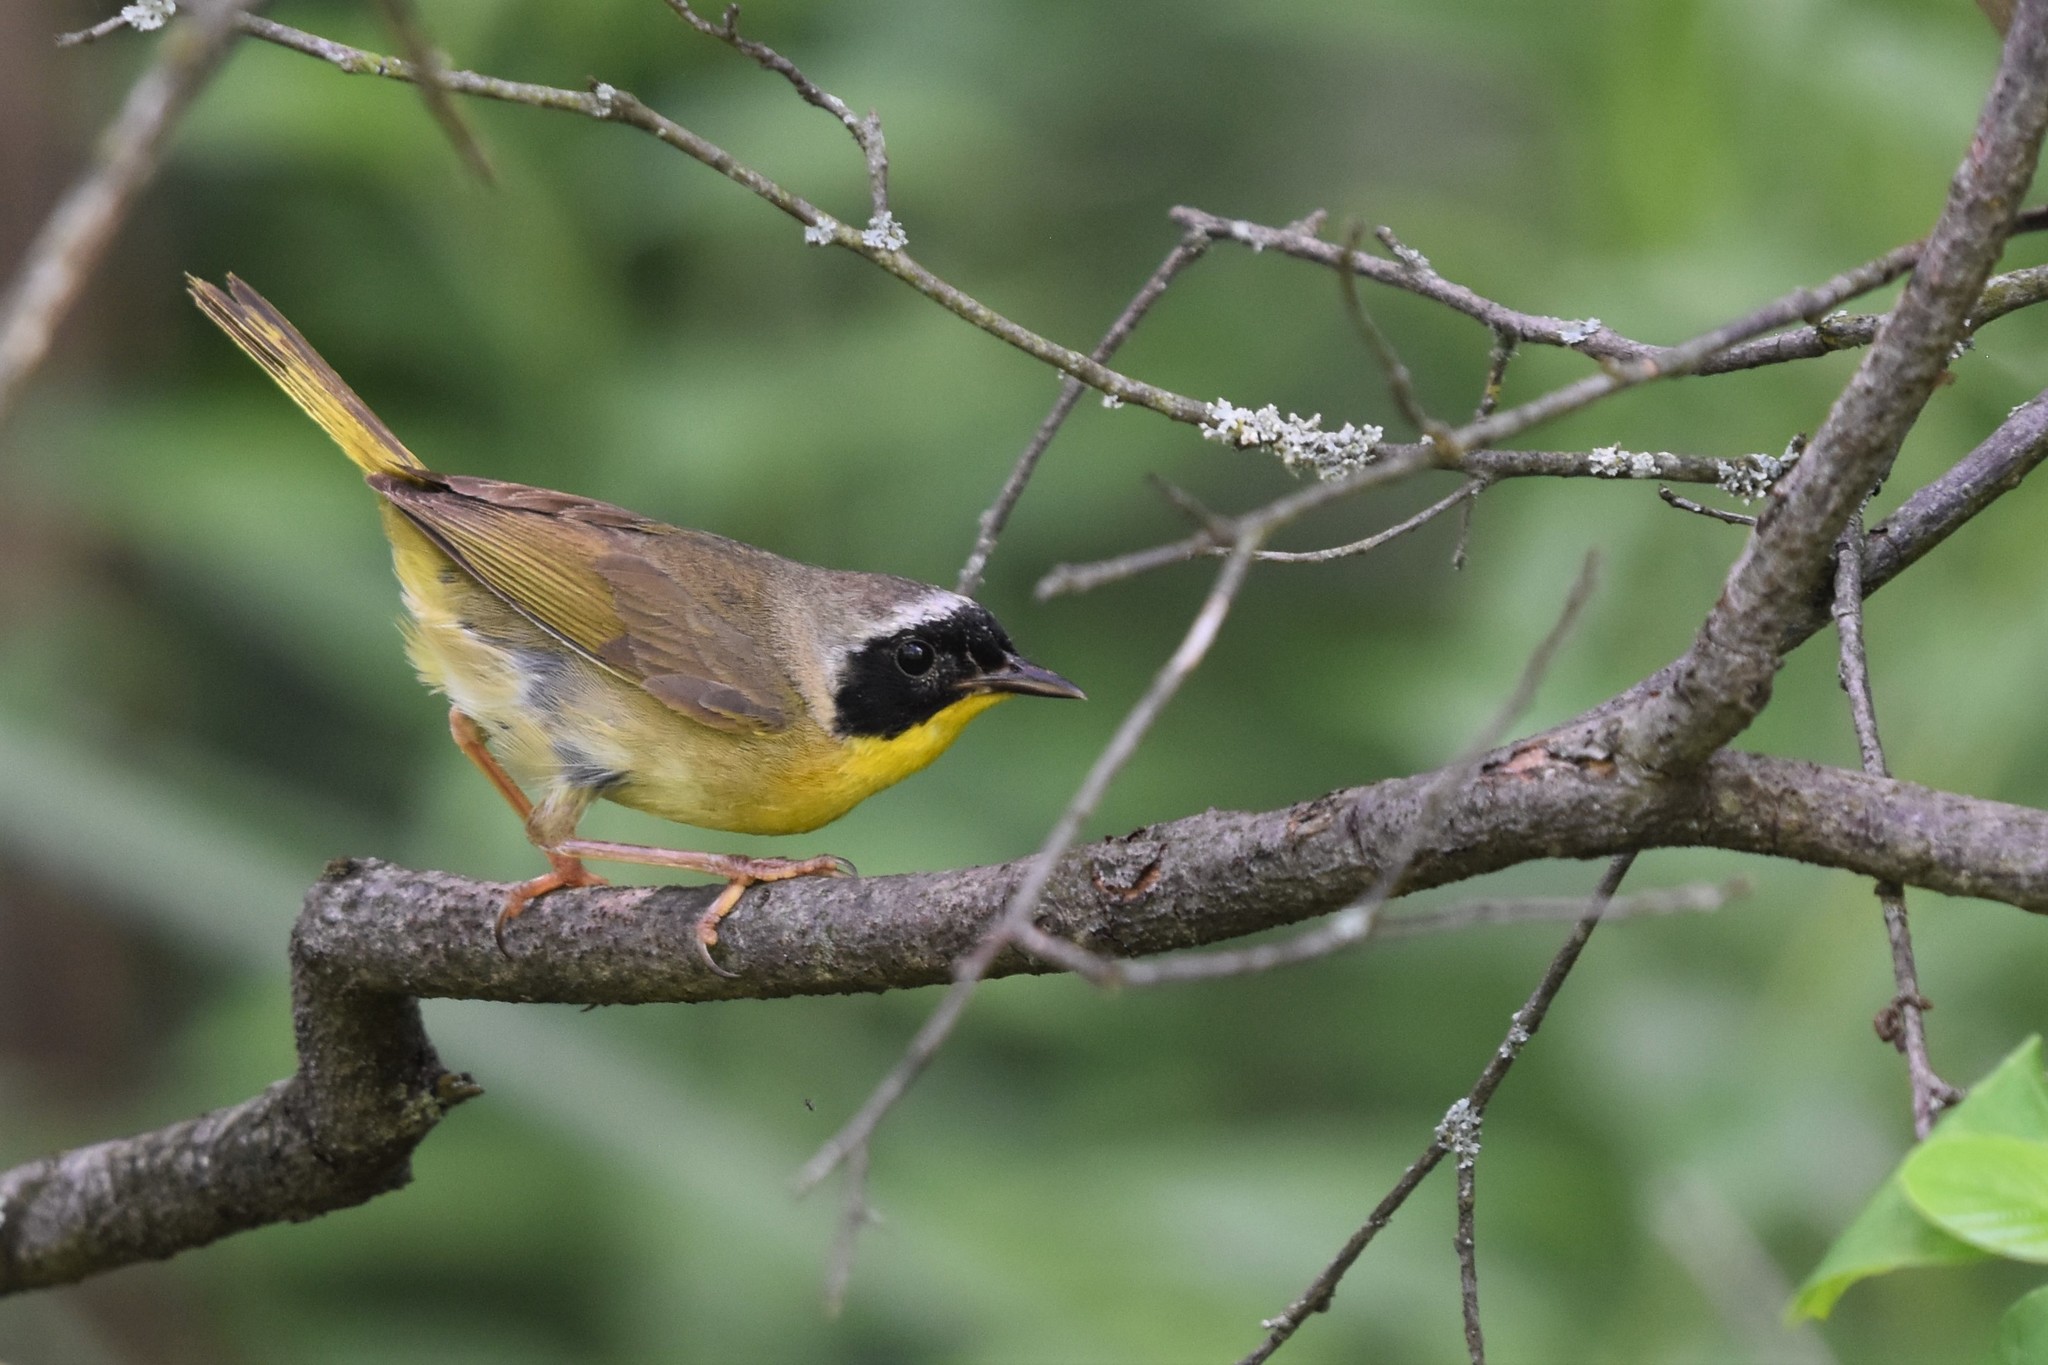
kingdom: Animalia
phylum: Chordata
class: Aves
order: Passeriformes
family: Parulidae
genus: Geothlypis
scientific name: Geothlypis trichas
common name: Common yellowthroat
